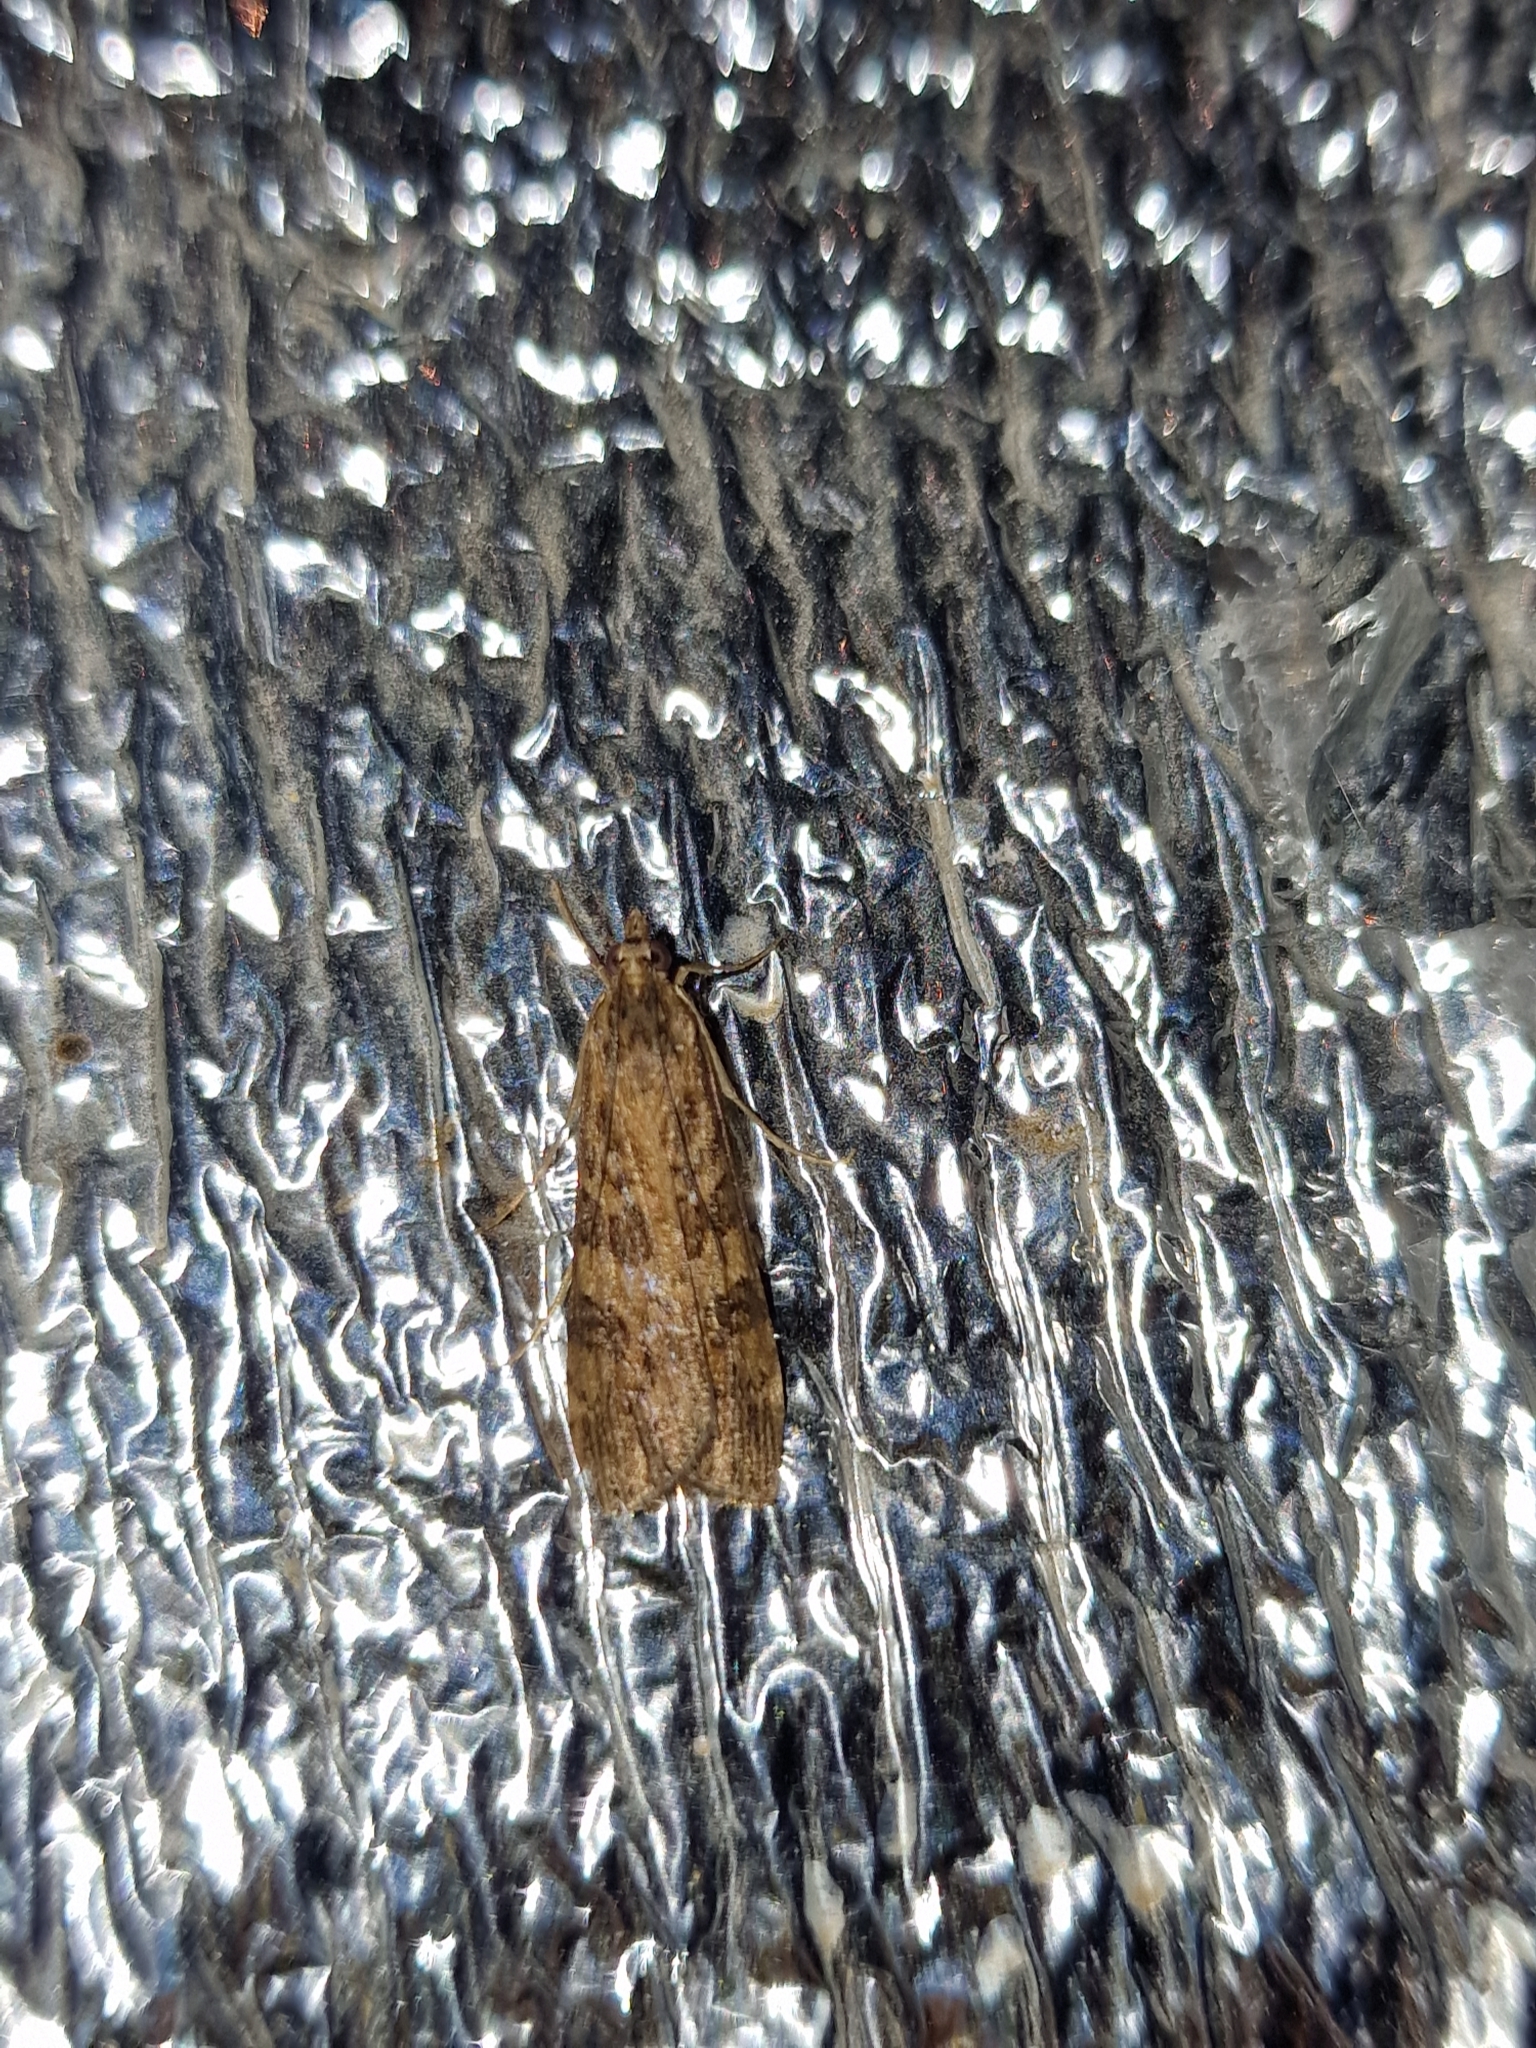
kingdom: Animalia
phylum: Arthropoda
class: Insecta
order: Lepidoptera
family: Crambidae
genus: Nomophila
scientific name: Nomophila noctuella
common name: Rush veneer
